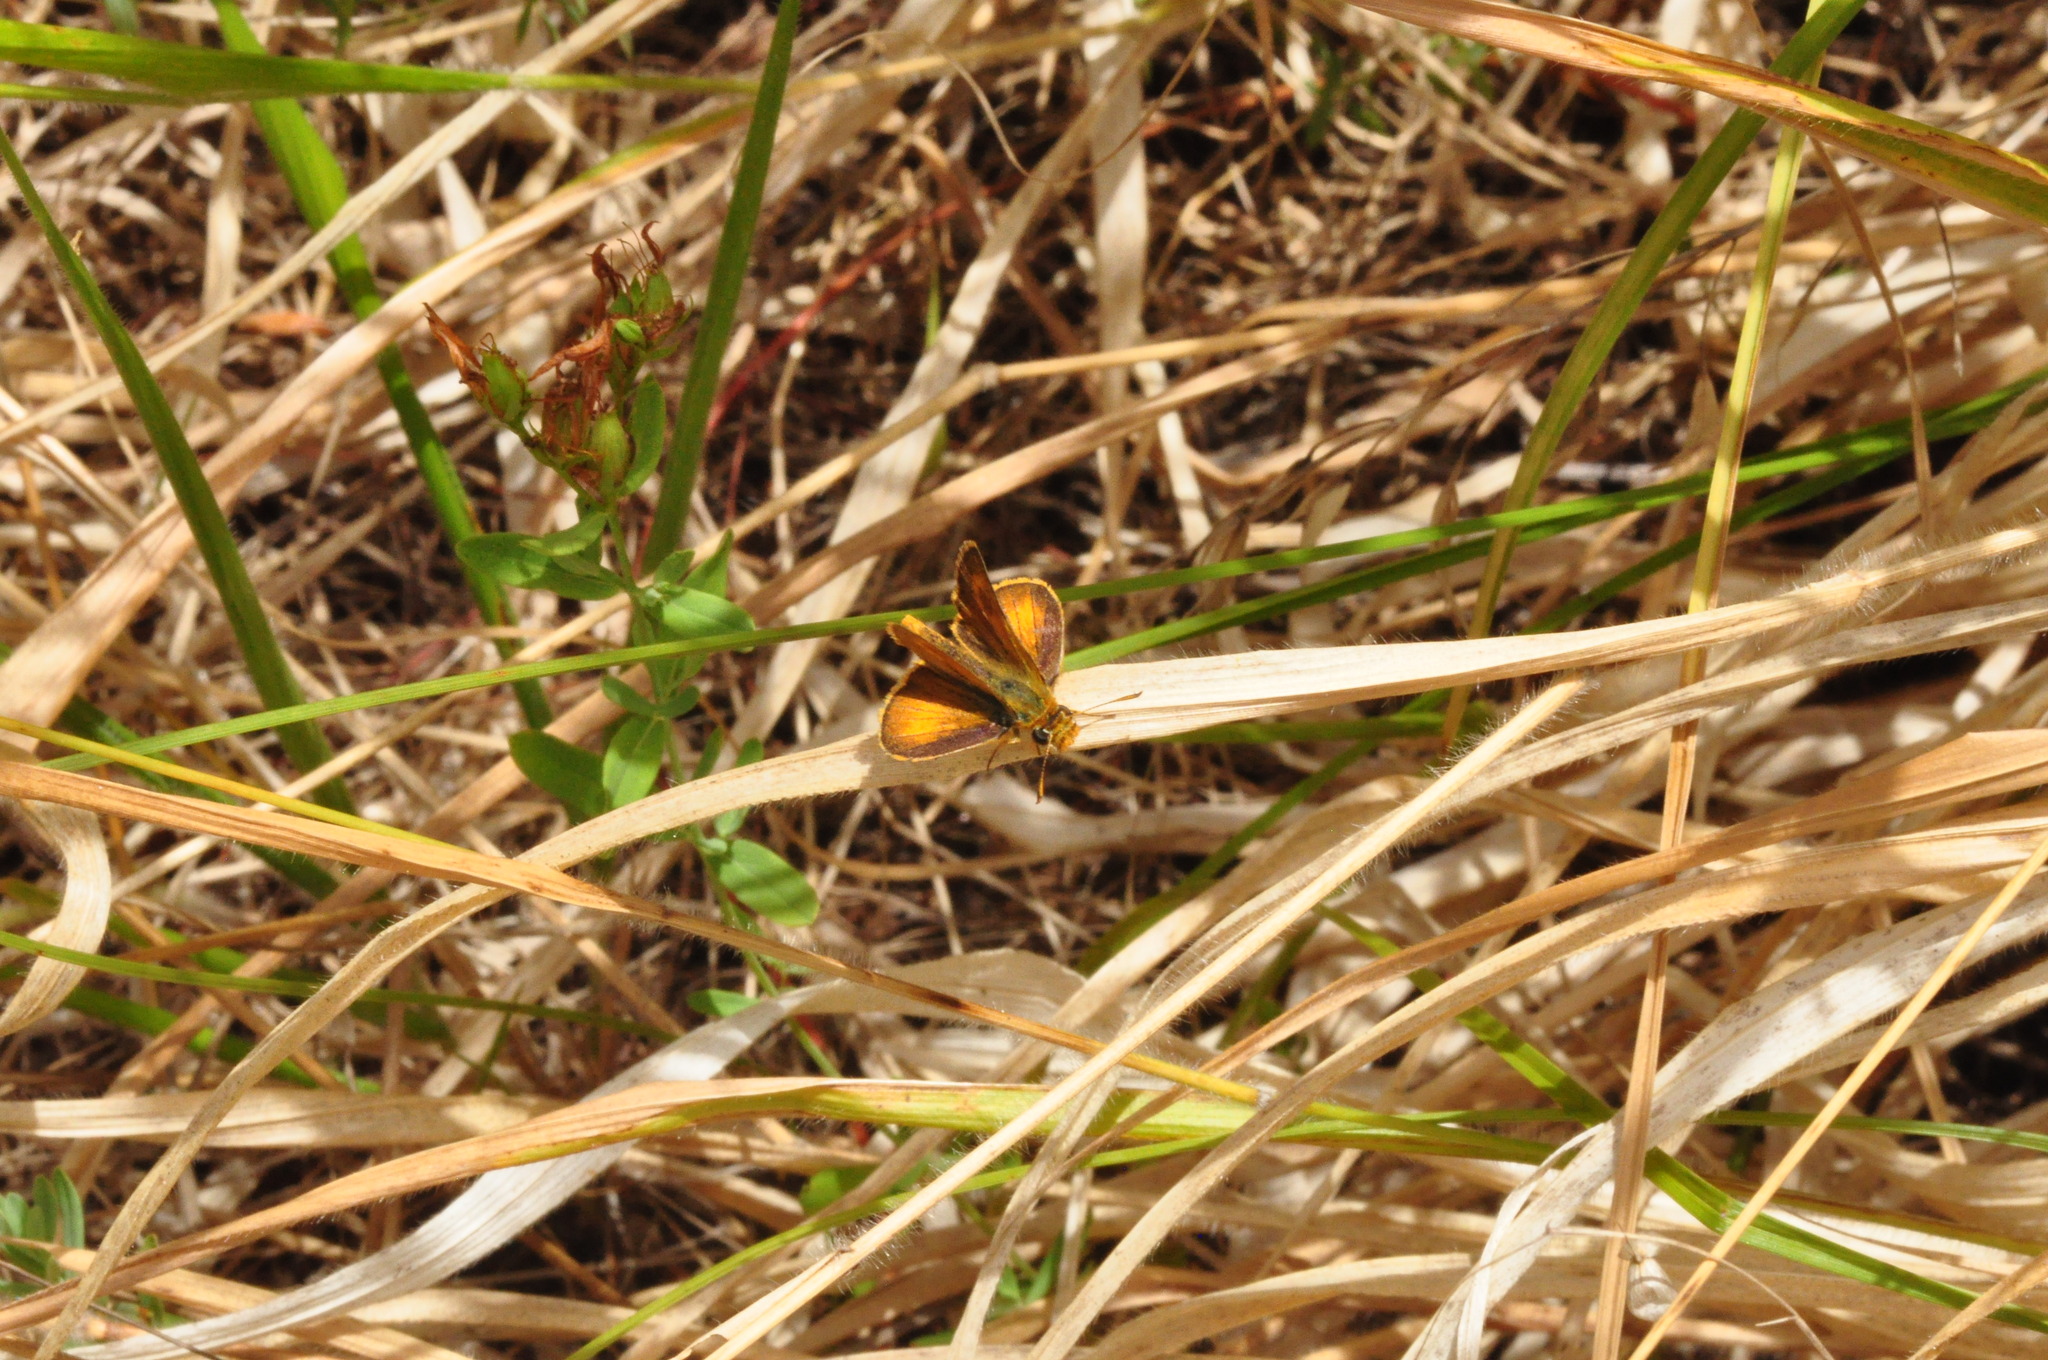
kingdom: Animalia
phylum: Arthropoda
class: Insecta
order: Lepidoptera
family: Hesperiidae
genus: Thymelicus
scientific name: Thymelicus acteon
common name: Lulworth skipper
